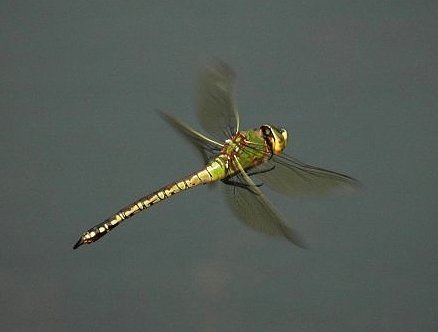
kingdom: Animalia
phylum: Arthropoda
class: Insecta
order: Odonata
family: Aeshnidae
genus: Anax
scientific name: Anax tumorifer
